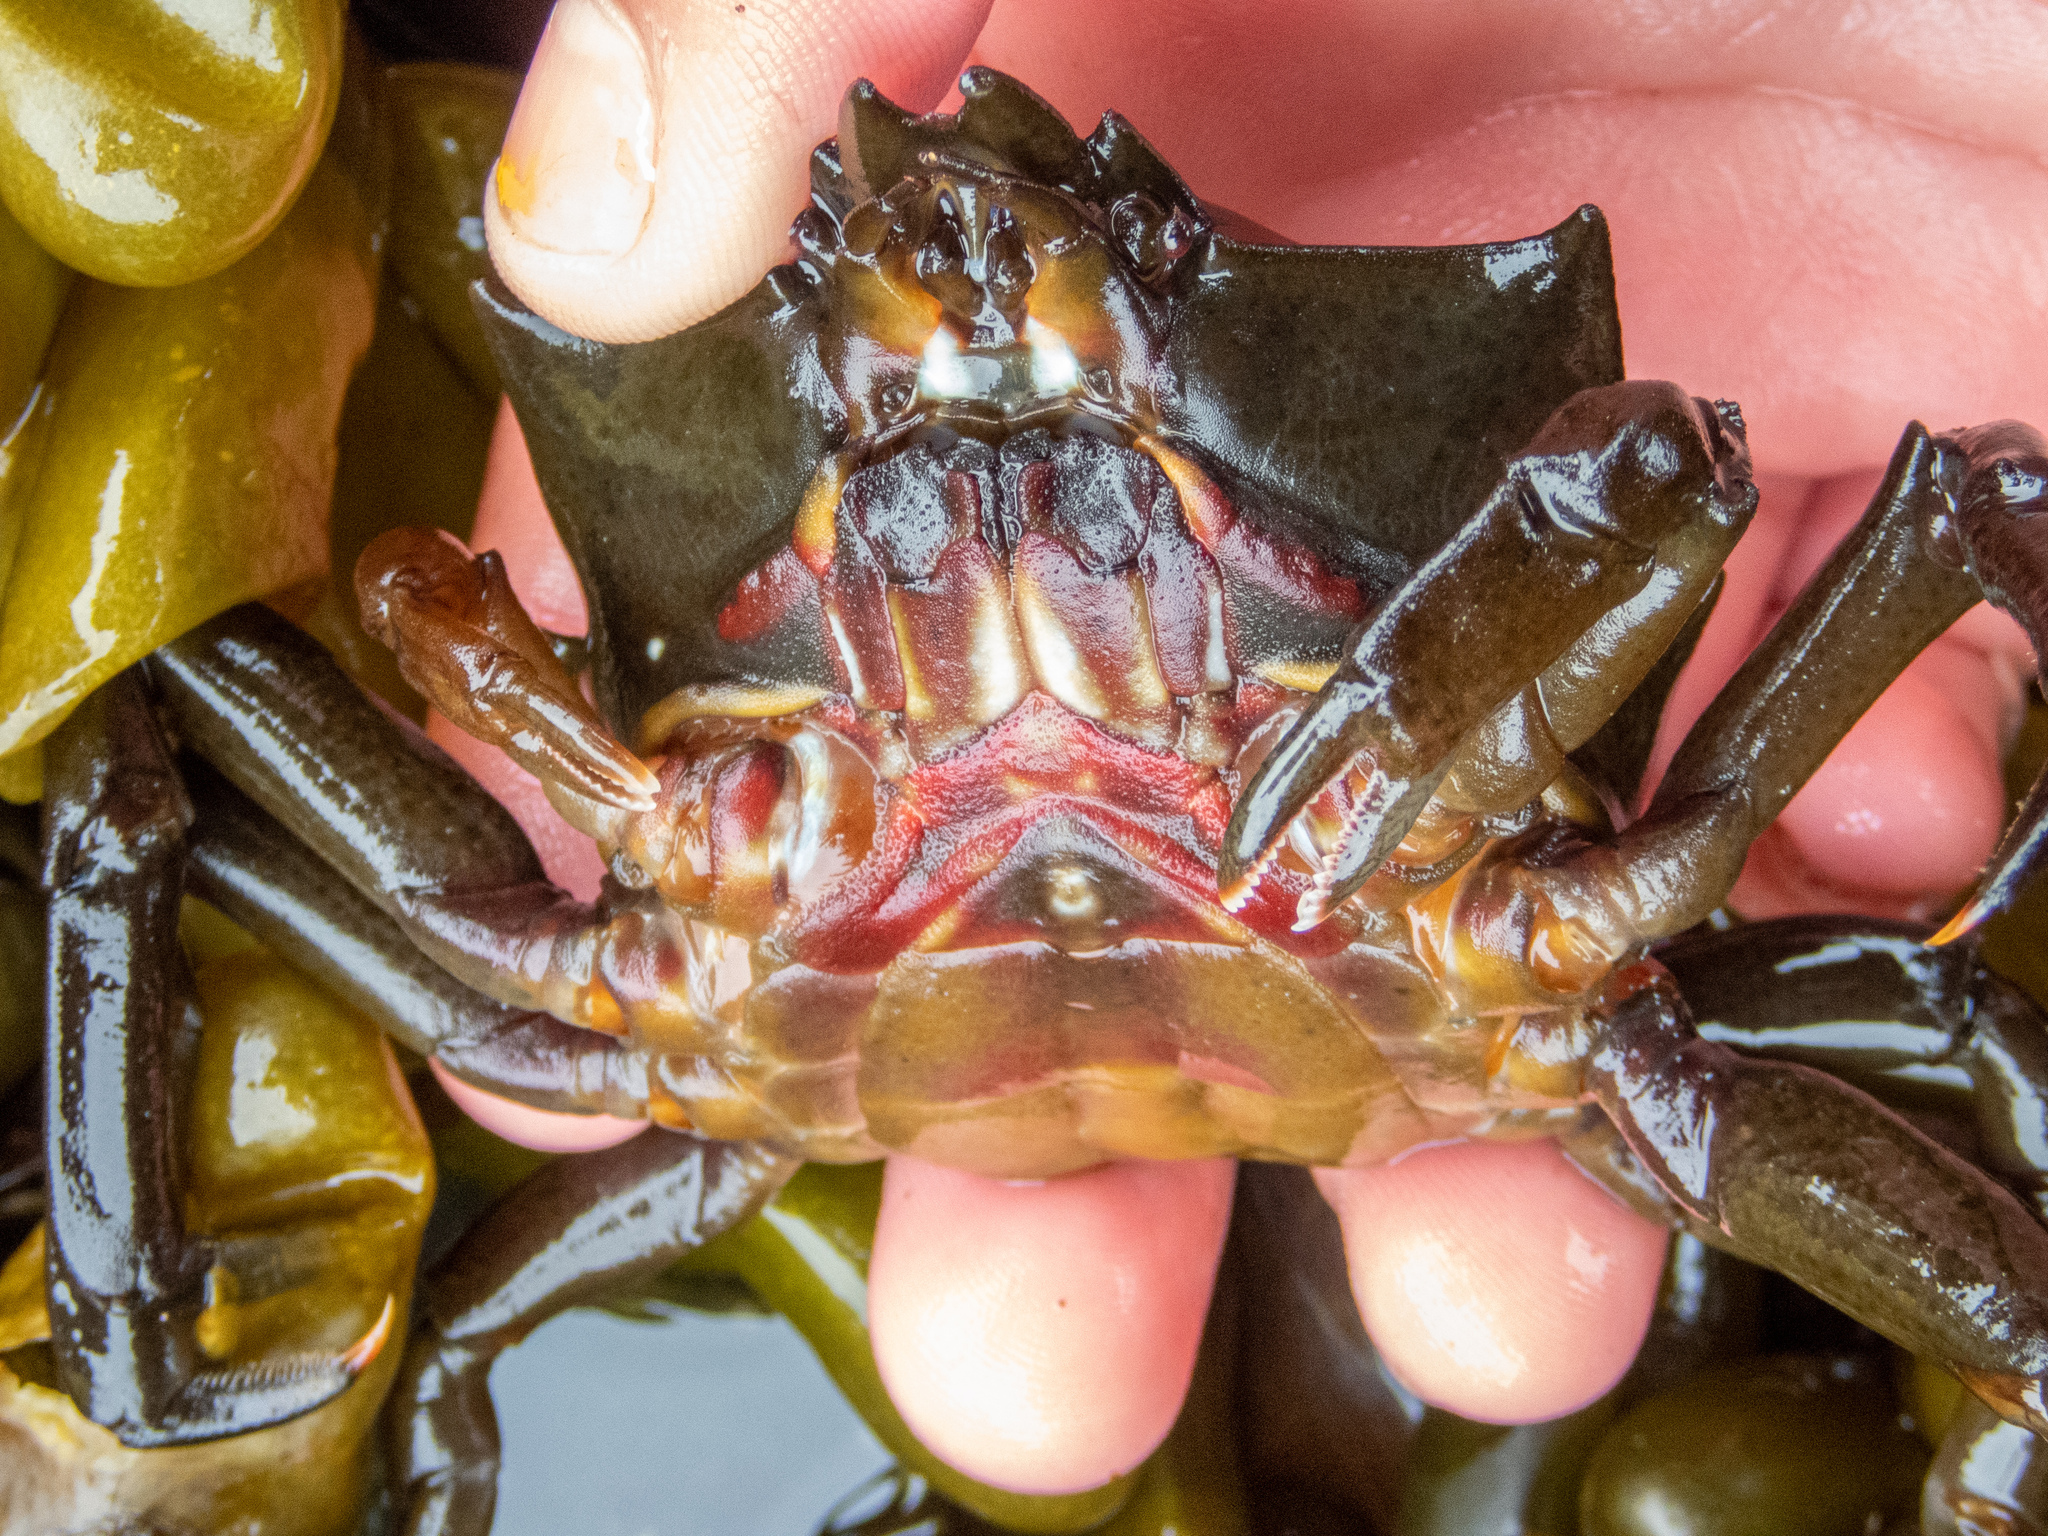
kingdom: Animalia
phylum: Arthropoda
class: Malacostraca
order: Decapoda
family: Epialtidae
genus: Pugettia
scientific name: Pugettia producta
